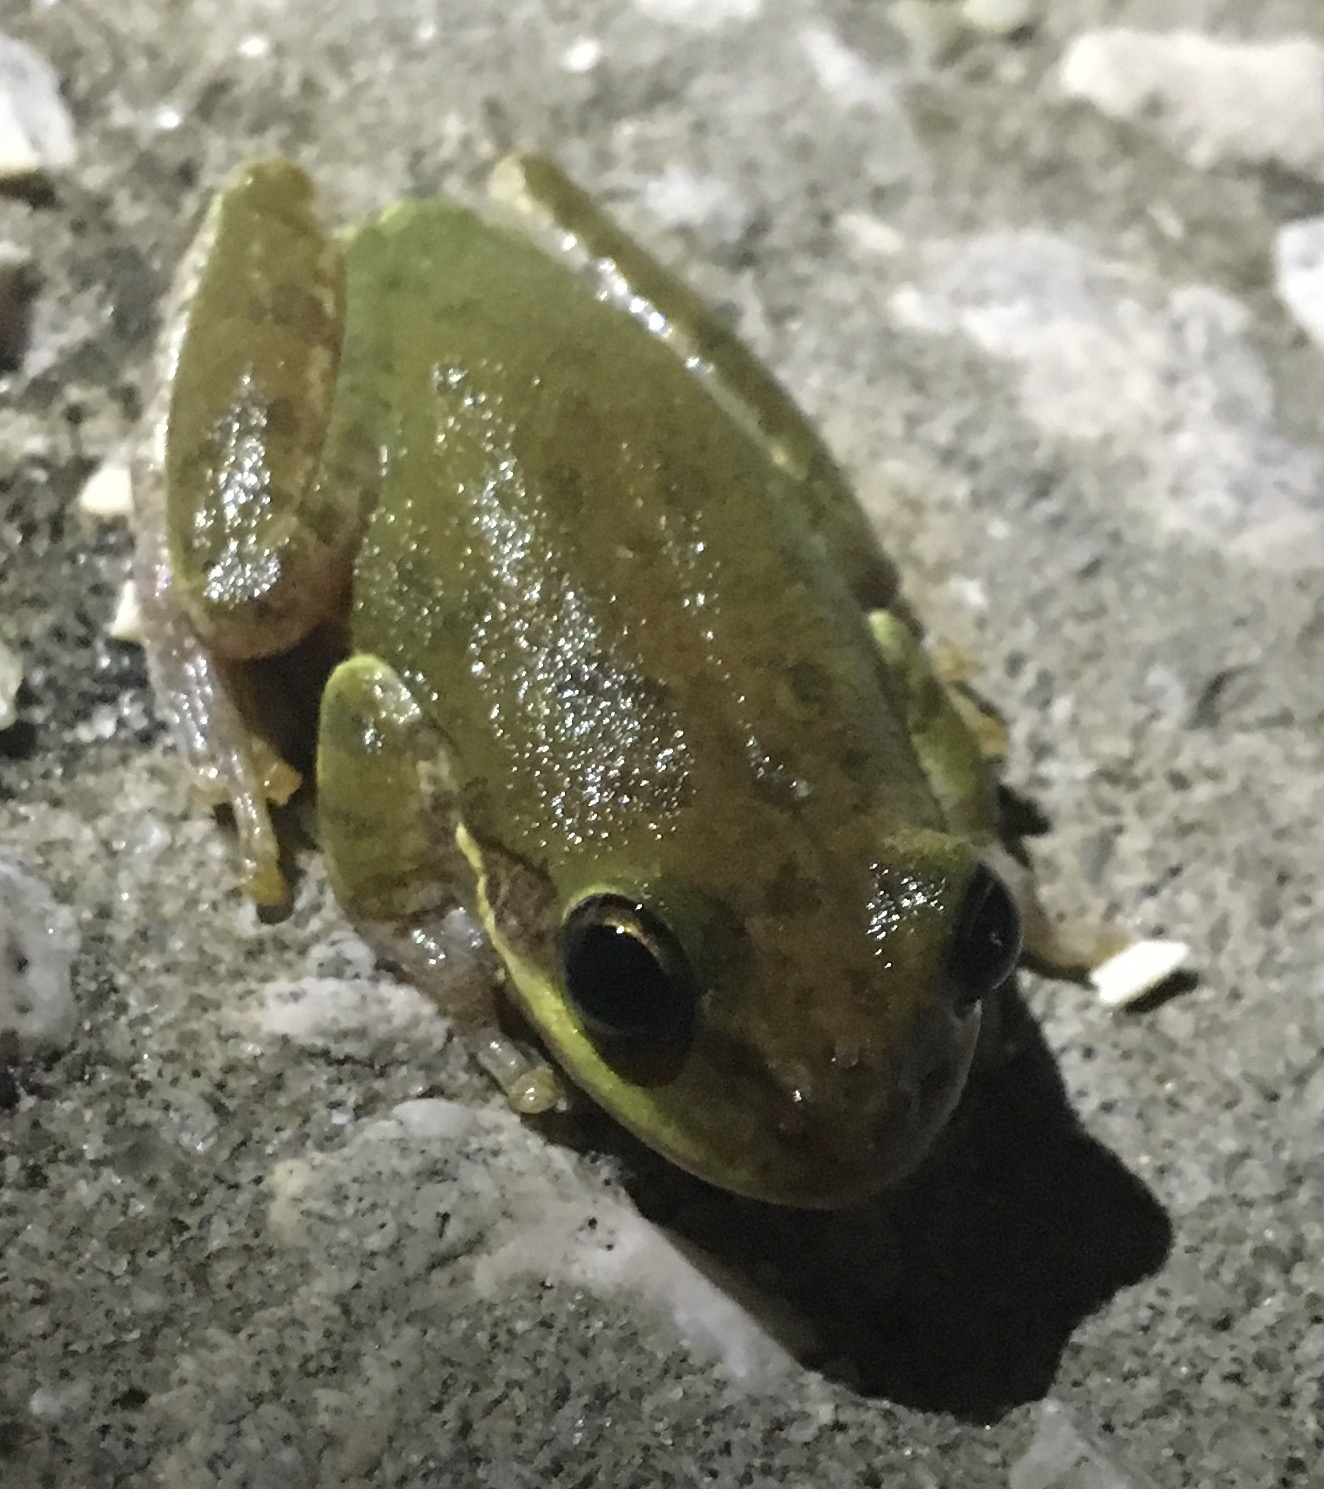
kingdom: Animalia
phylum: Chordata
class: Amphibia
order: Anura
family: Hylidae
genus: Dryophytes
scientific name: Dryophytes squirellus
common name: Squirrel treefrog
